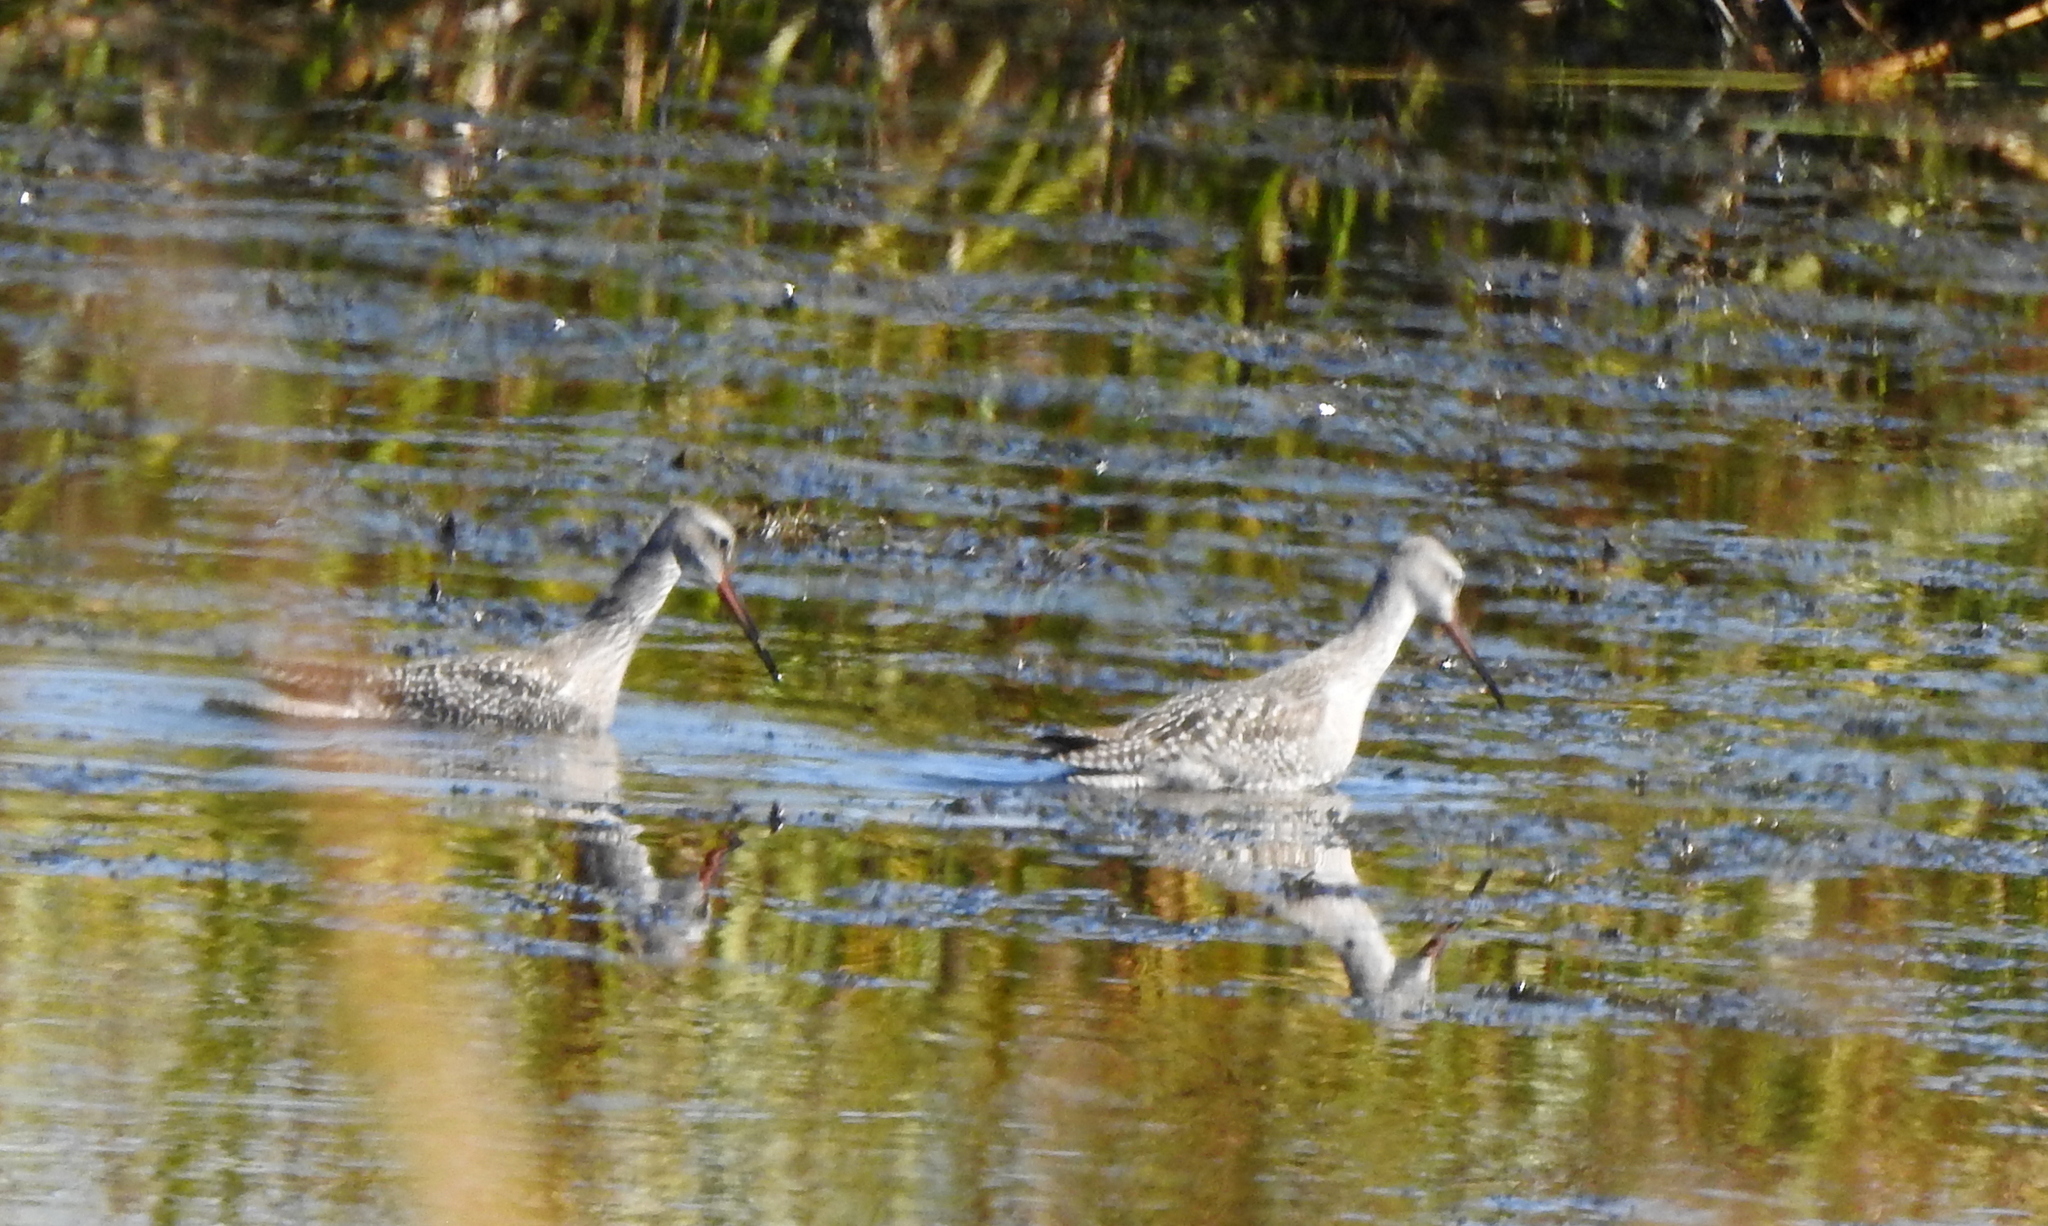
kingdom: Animalia
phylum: Chordata
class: Aves
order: Charadriiformes
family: Scolopacidae
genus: Tringa
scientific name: Tringa erythropus
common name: Spotted redshank
